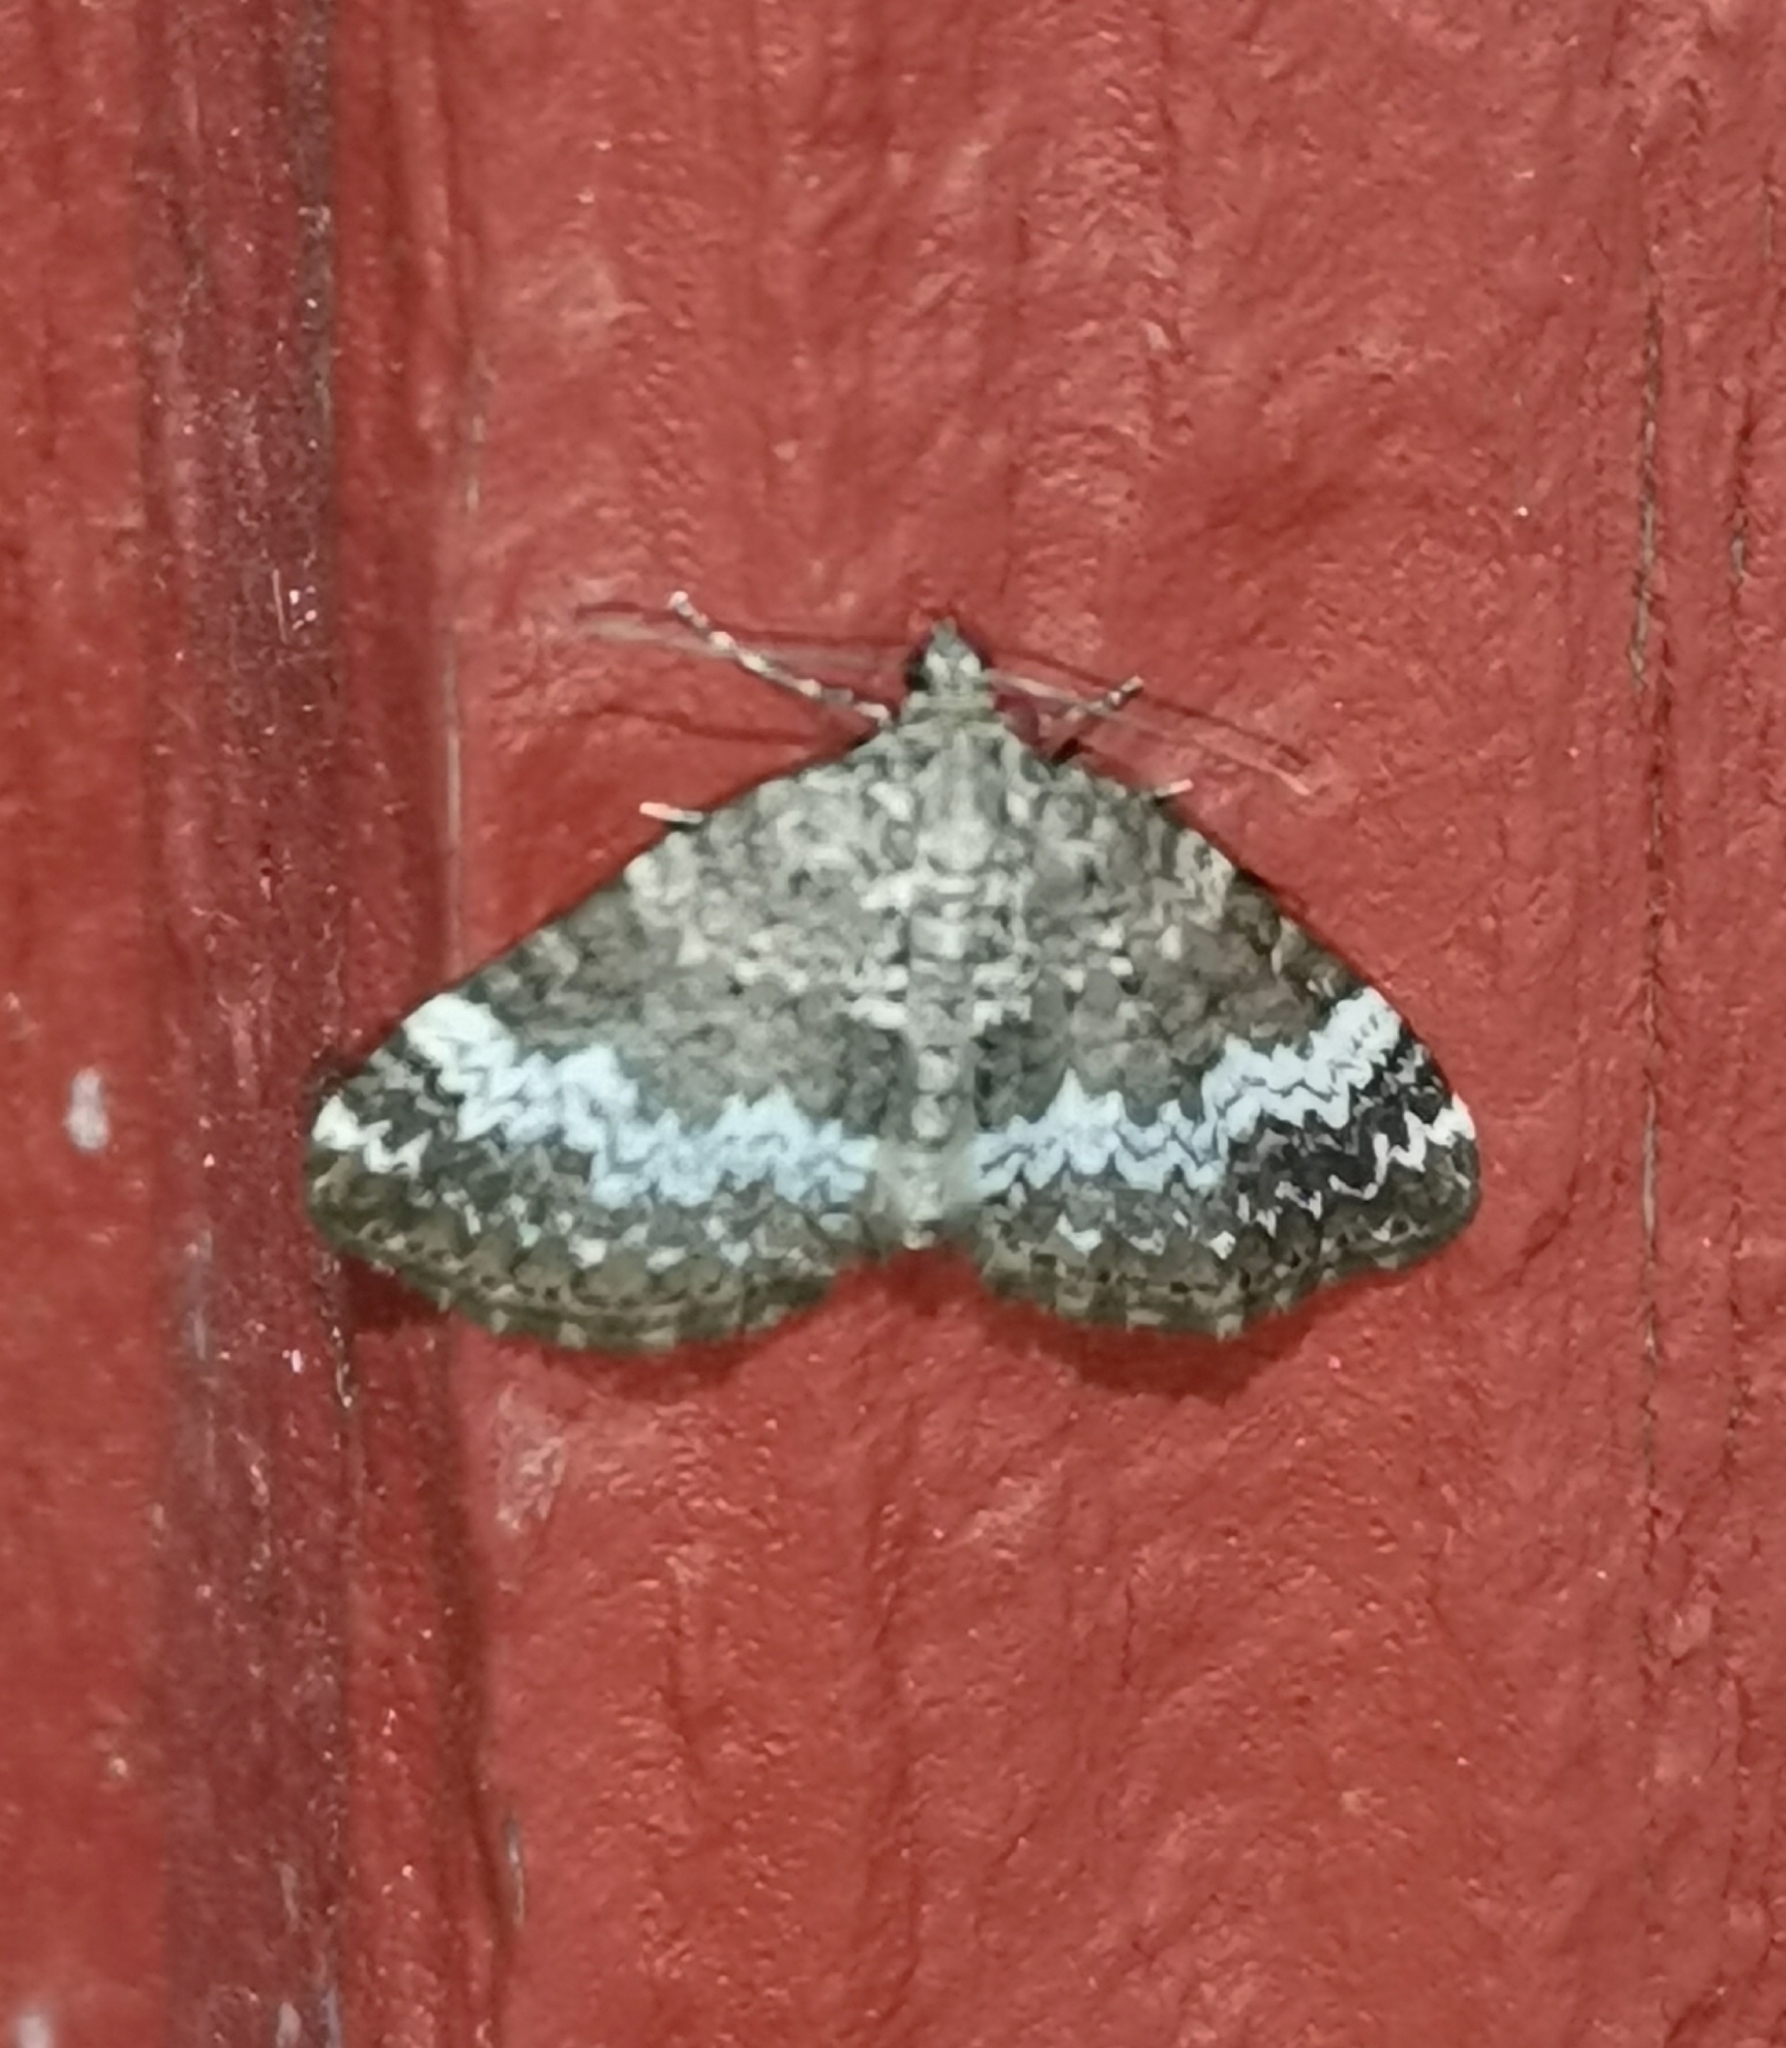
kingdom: Animalia
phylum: Arthropoda
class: Insecta
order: Lepidoptera
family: Geometridae
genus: Perizoma
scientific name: Perizoma alchemillata
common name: Small rivulet
